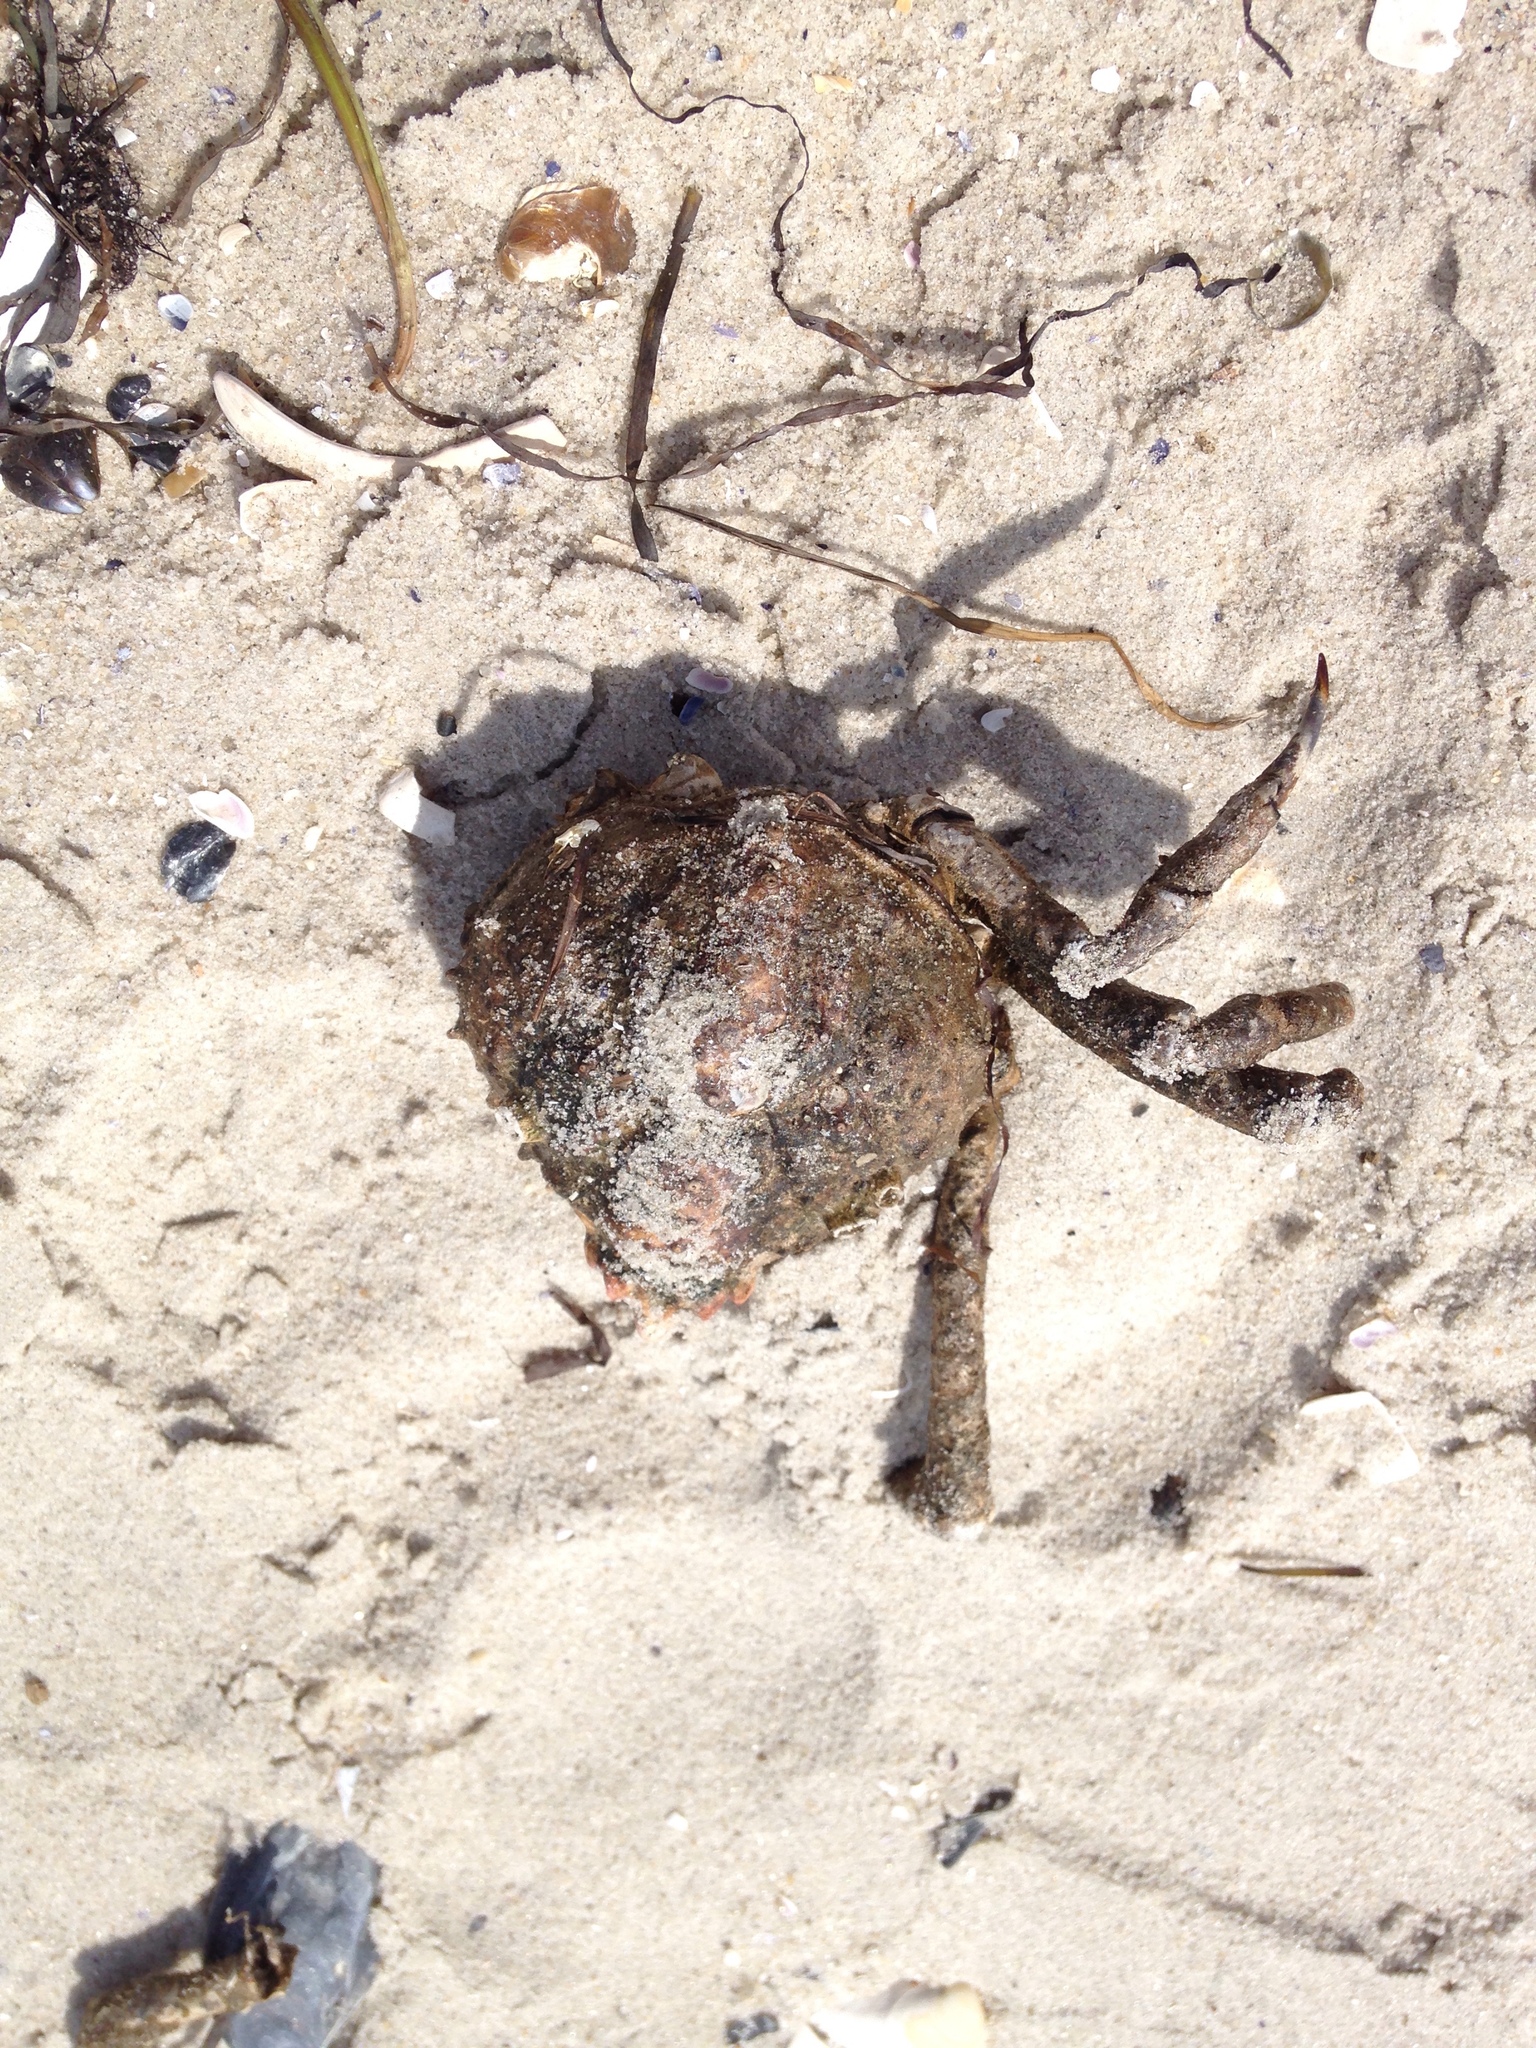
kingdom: Animalia
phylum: Arthropoda
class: Malacostraca
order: Decapoda
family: Epialtidae
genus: Libinia
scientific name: Libinia emarginata
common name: Common spider crab
